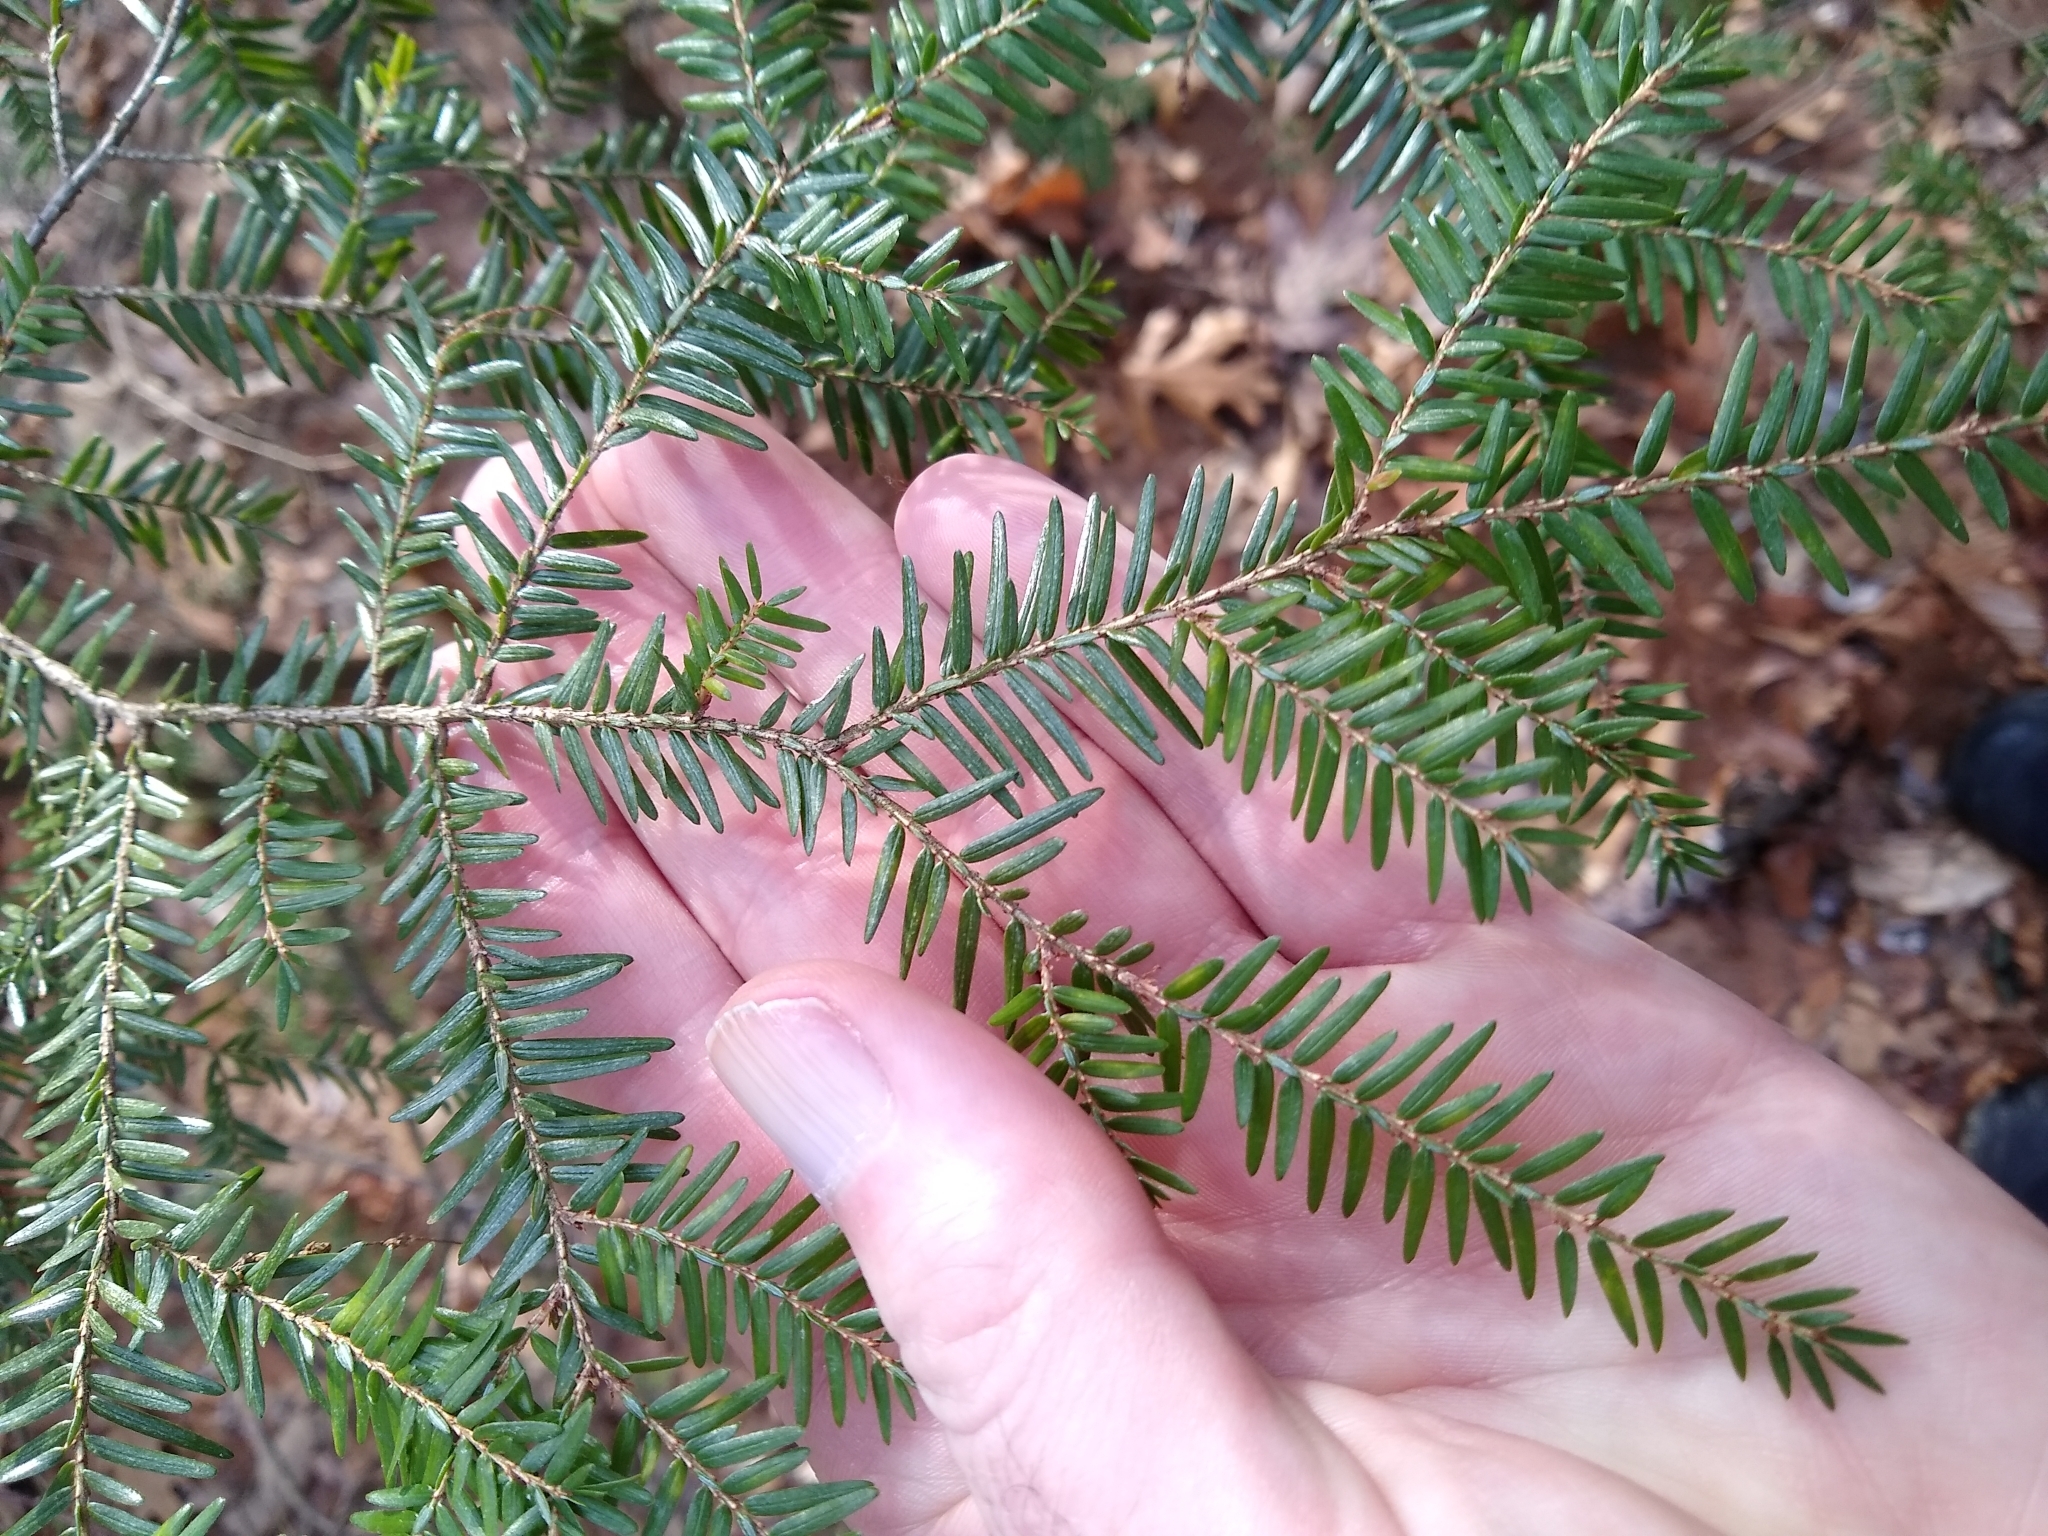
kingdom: Plantae
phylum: Tracheophyta
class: Pinopsida
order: Pinales
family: Pinaceae
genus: Tsuga
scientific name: Tsuga canadensis
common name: Eastern hemlock
